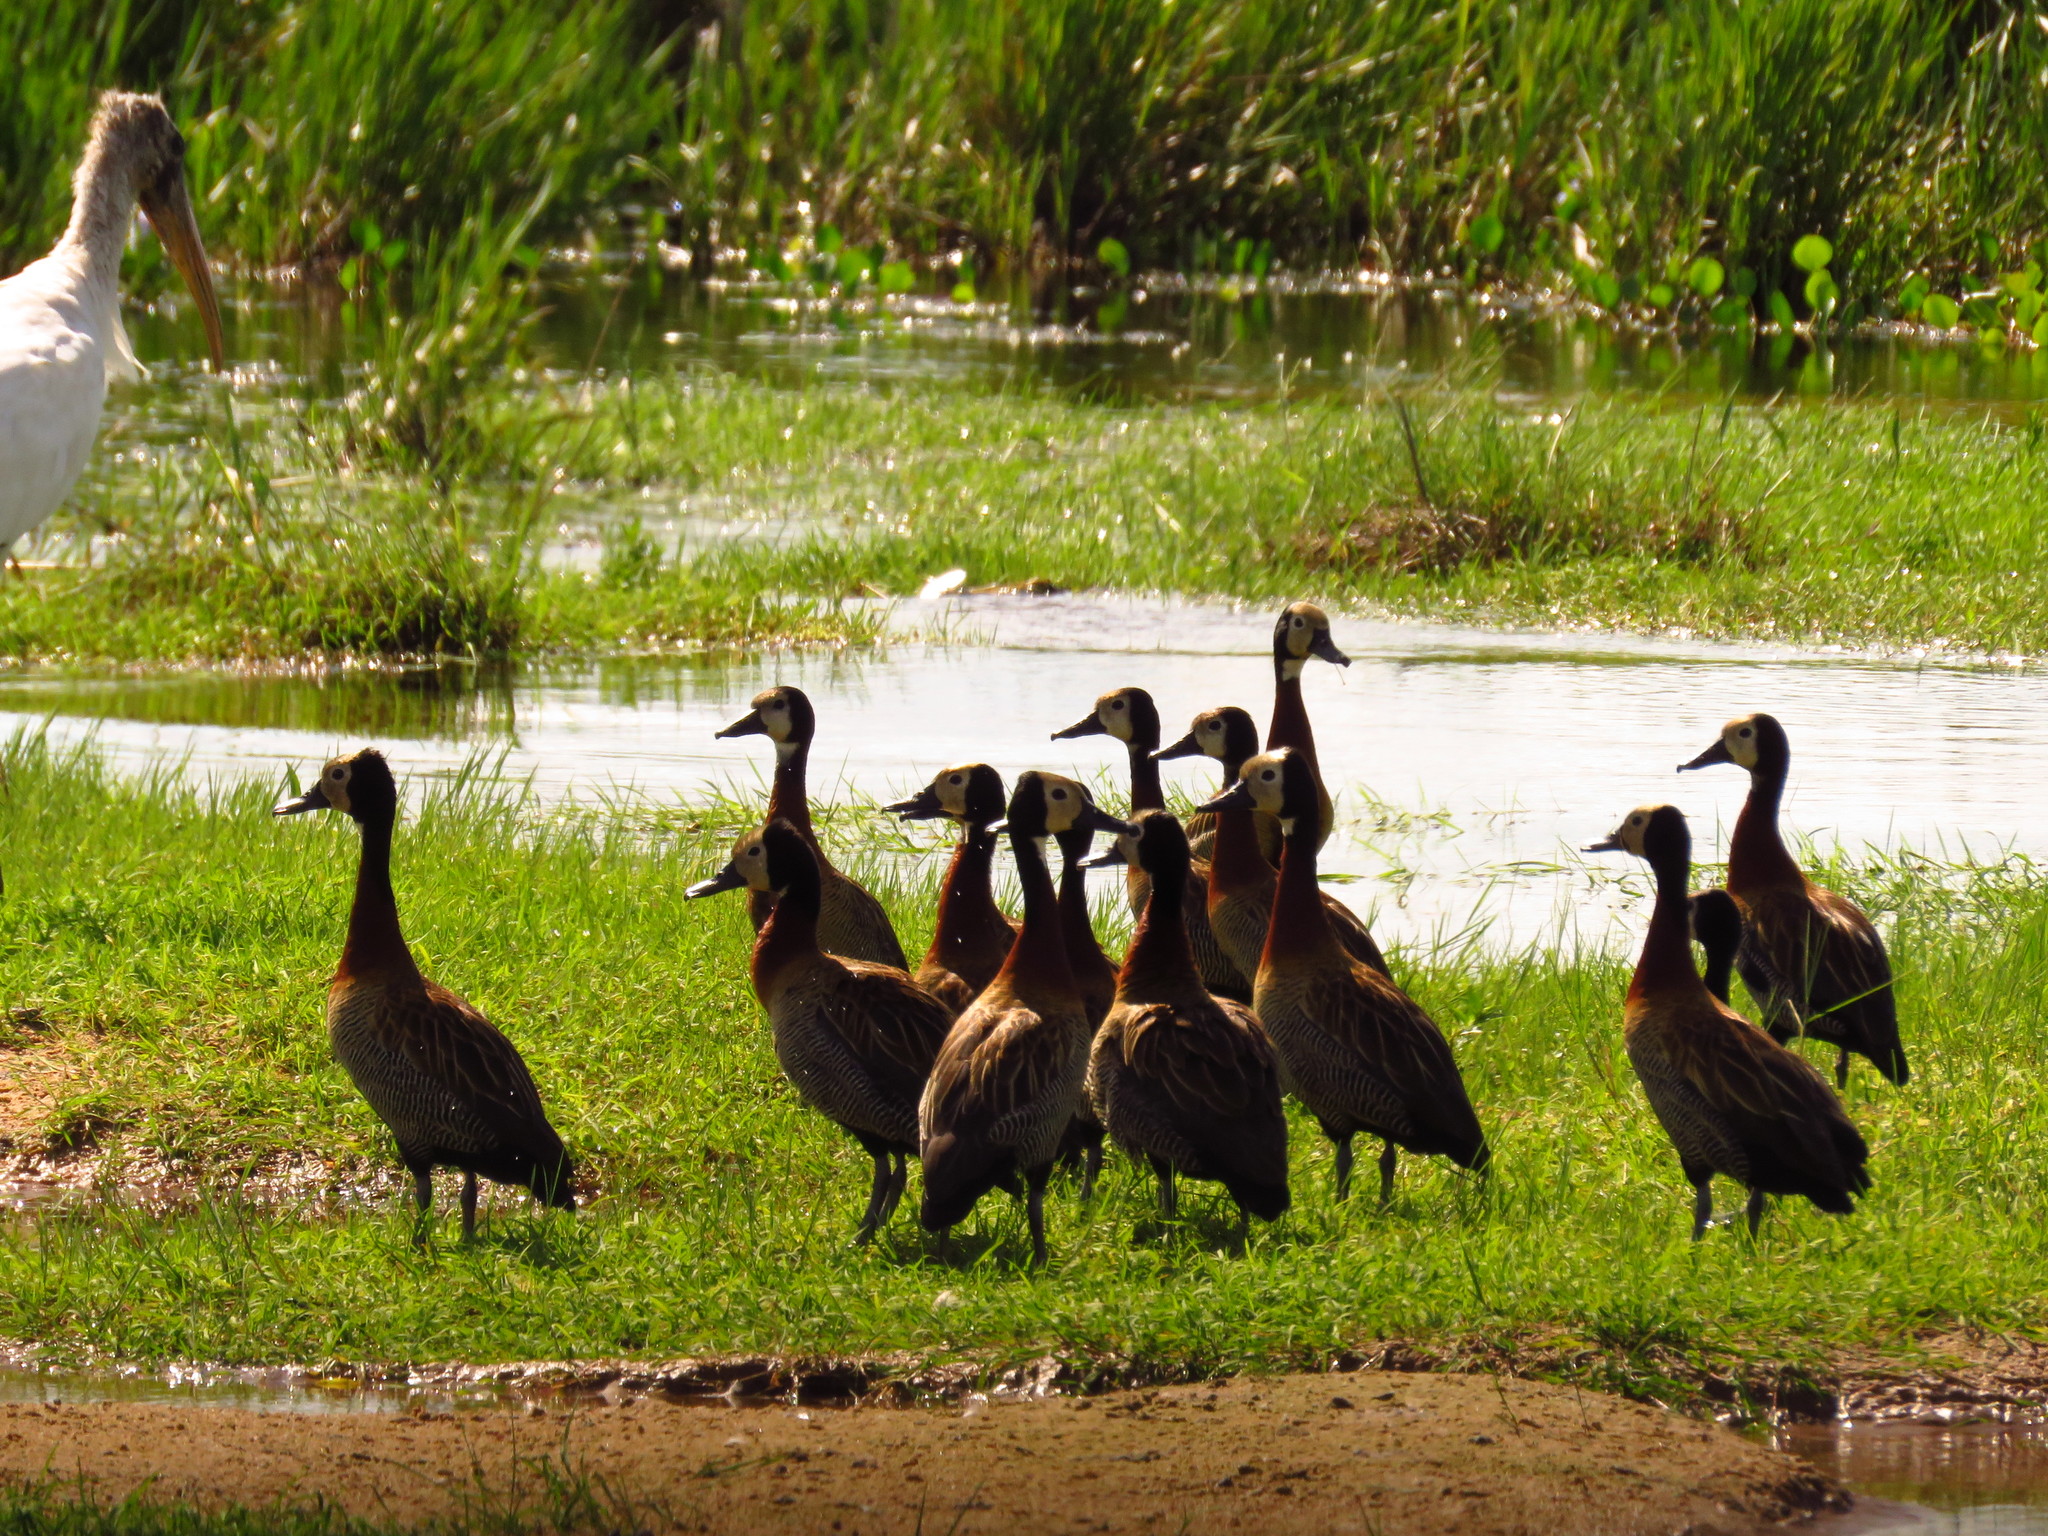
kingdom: Animalia
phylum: Chordata
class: Aves
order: Anseriformes
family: Anatidae
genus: Dendrocygna
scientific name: Dendrocygna viduata
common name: White-faced whistling duck
